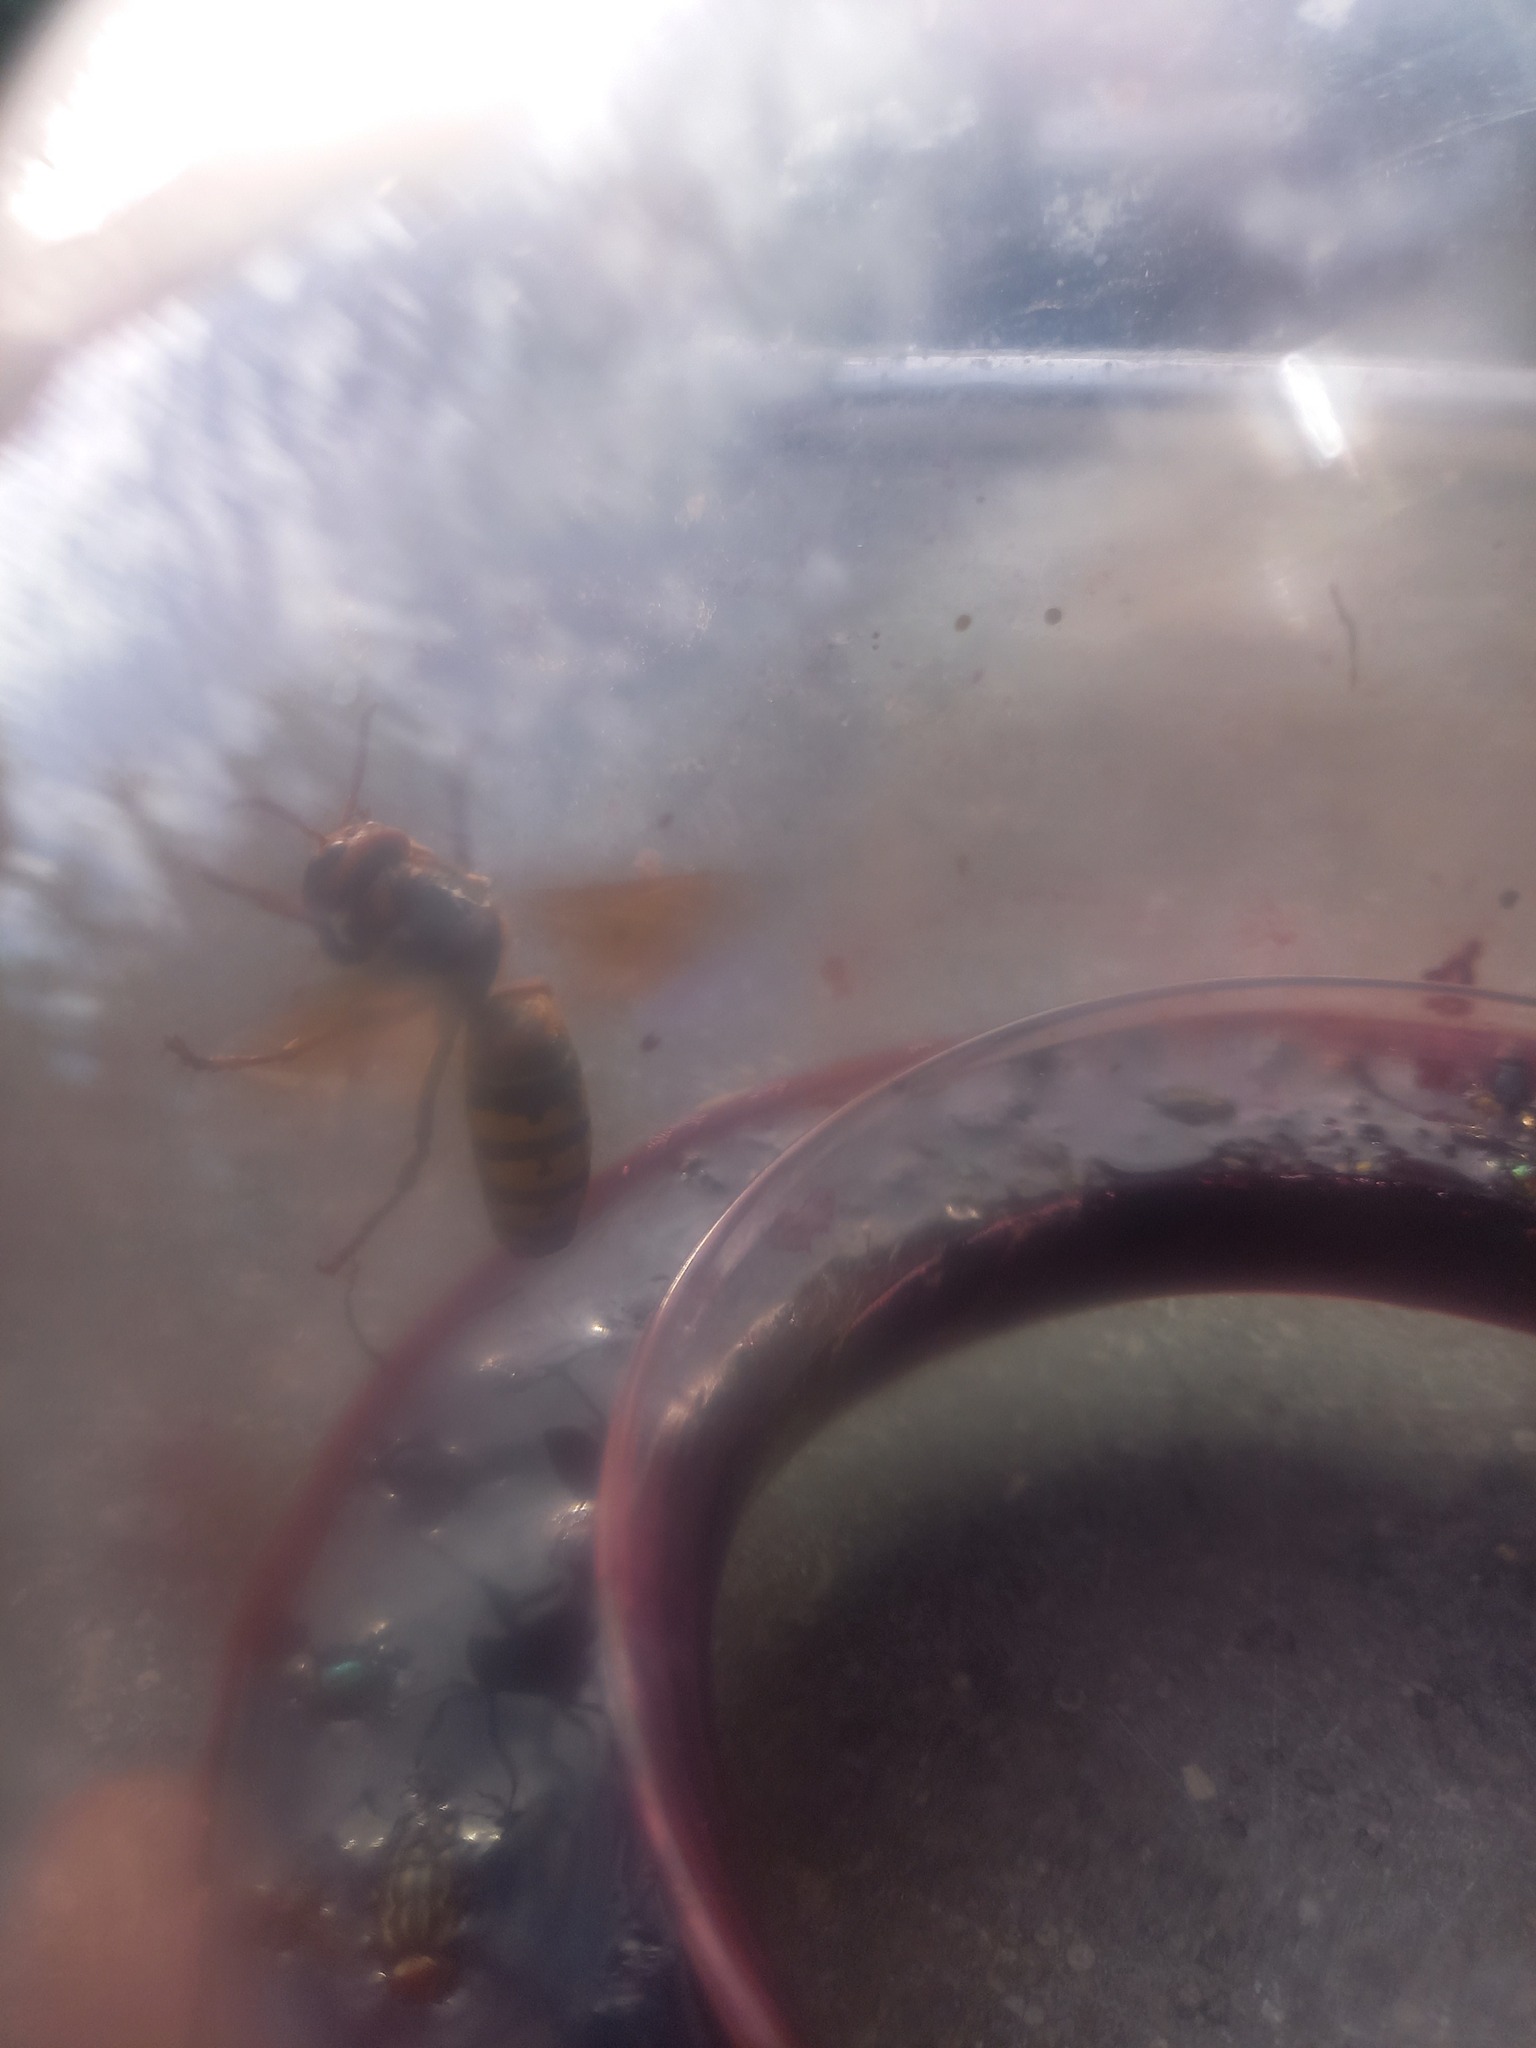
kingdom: Animalia
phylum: Arthropoda
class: Insecta
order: Hymenoptera
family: Vespidae
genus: Vespa
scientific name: Vespa crabro
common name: Hornet
